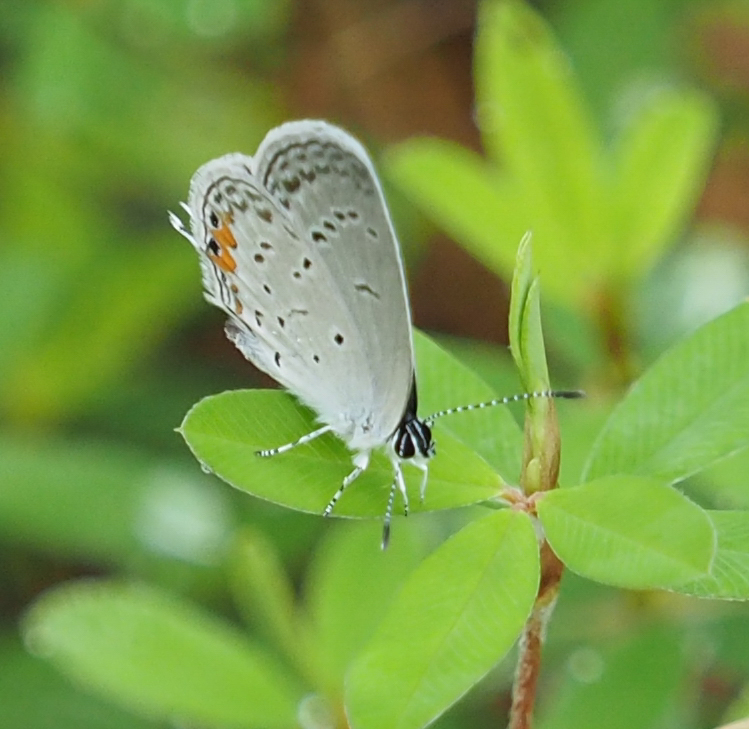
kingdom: Animalia
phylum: Arthropoda
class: Insecta
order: Lepidoptera
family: Lycaenidae
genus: Elkalyce
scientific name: Elkalyce comyntas
